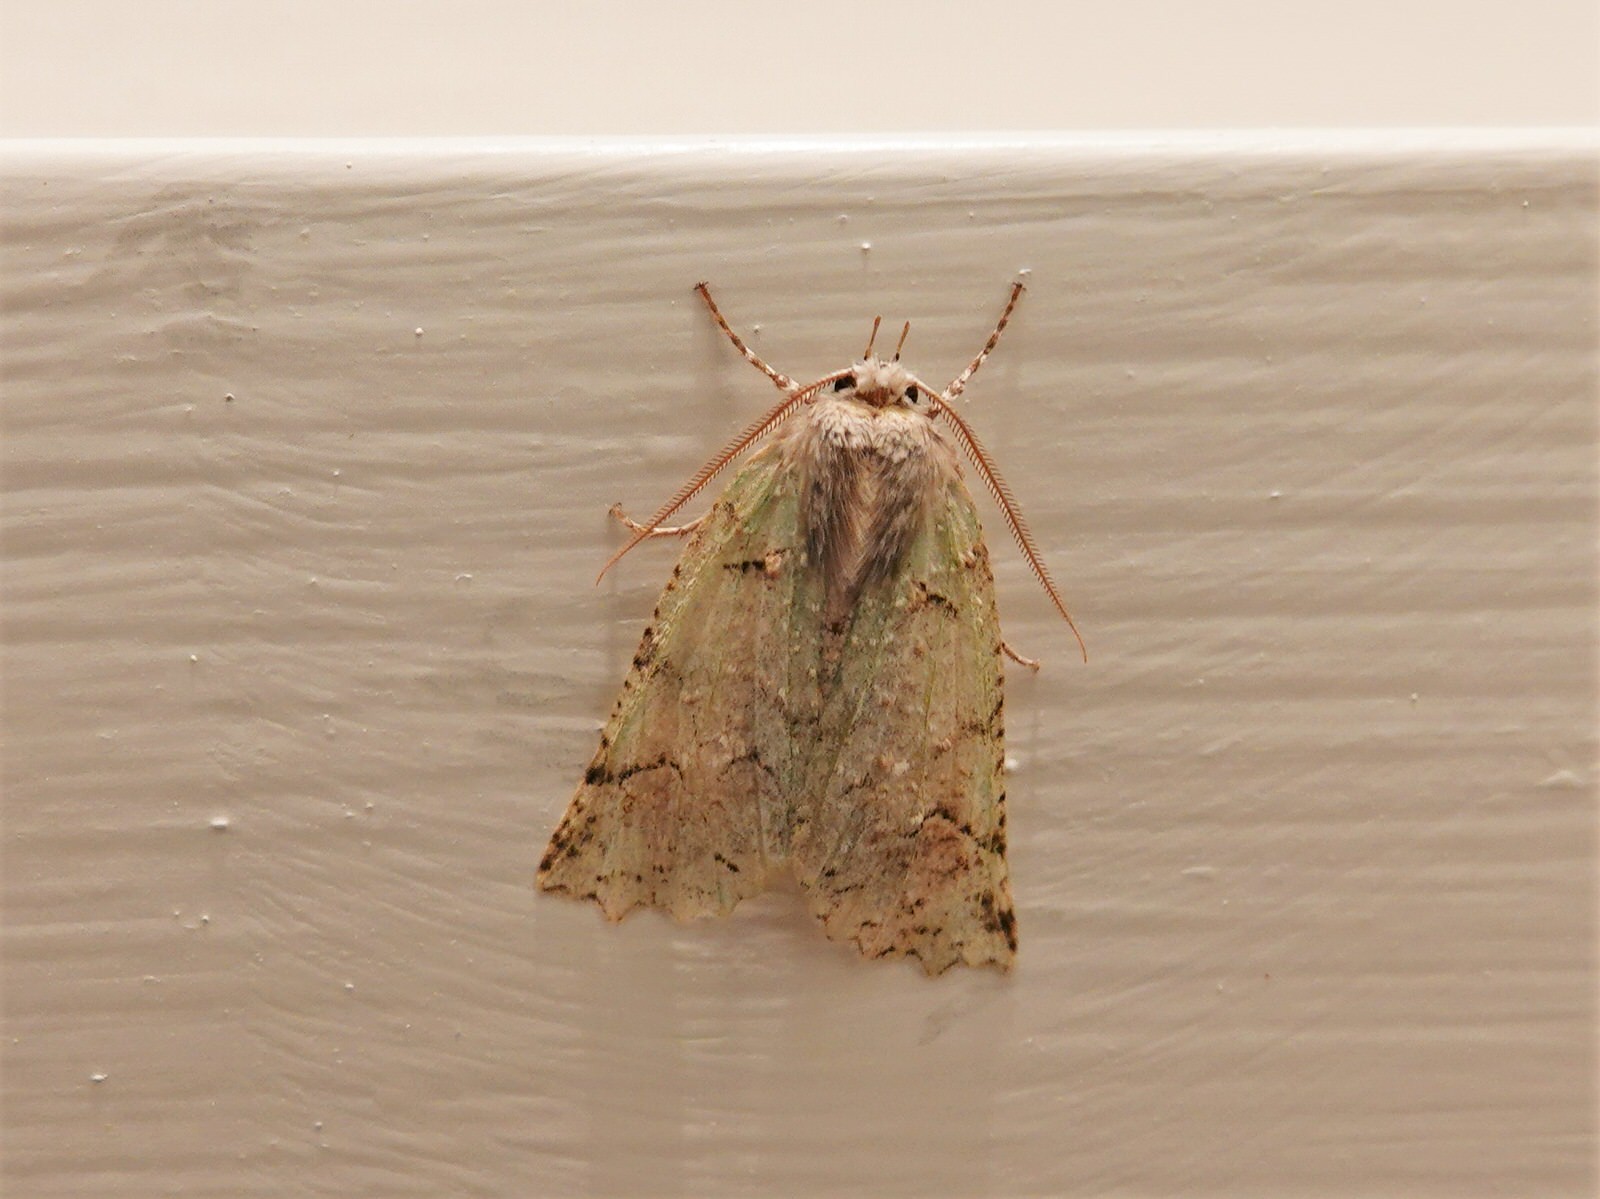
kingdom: Animalia
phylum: Arthropoda
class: Insecta
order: Lepidoptera
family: Geometridae
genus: Declana
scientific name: Declana floccosa
